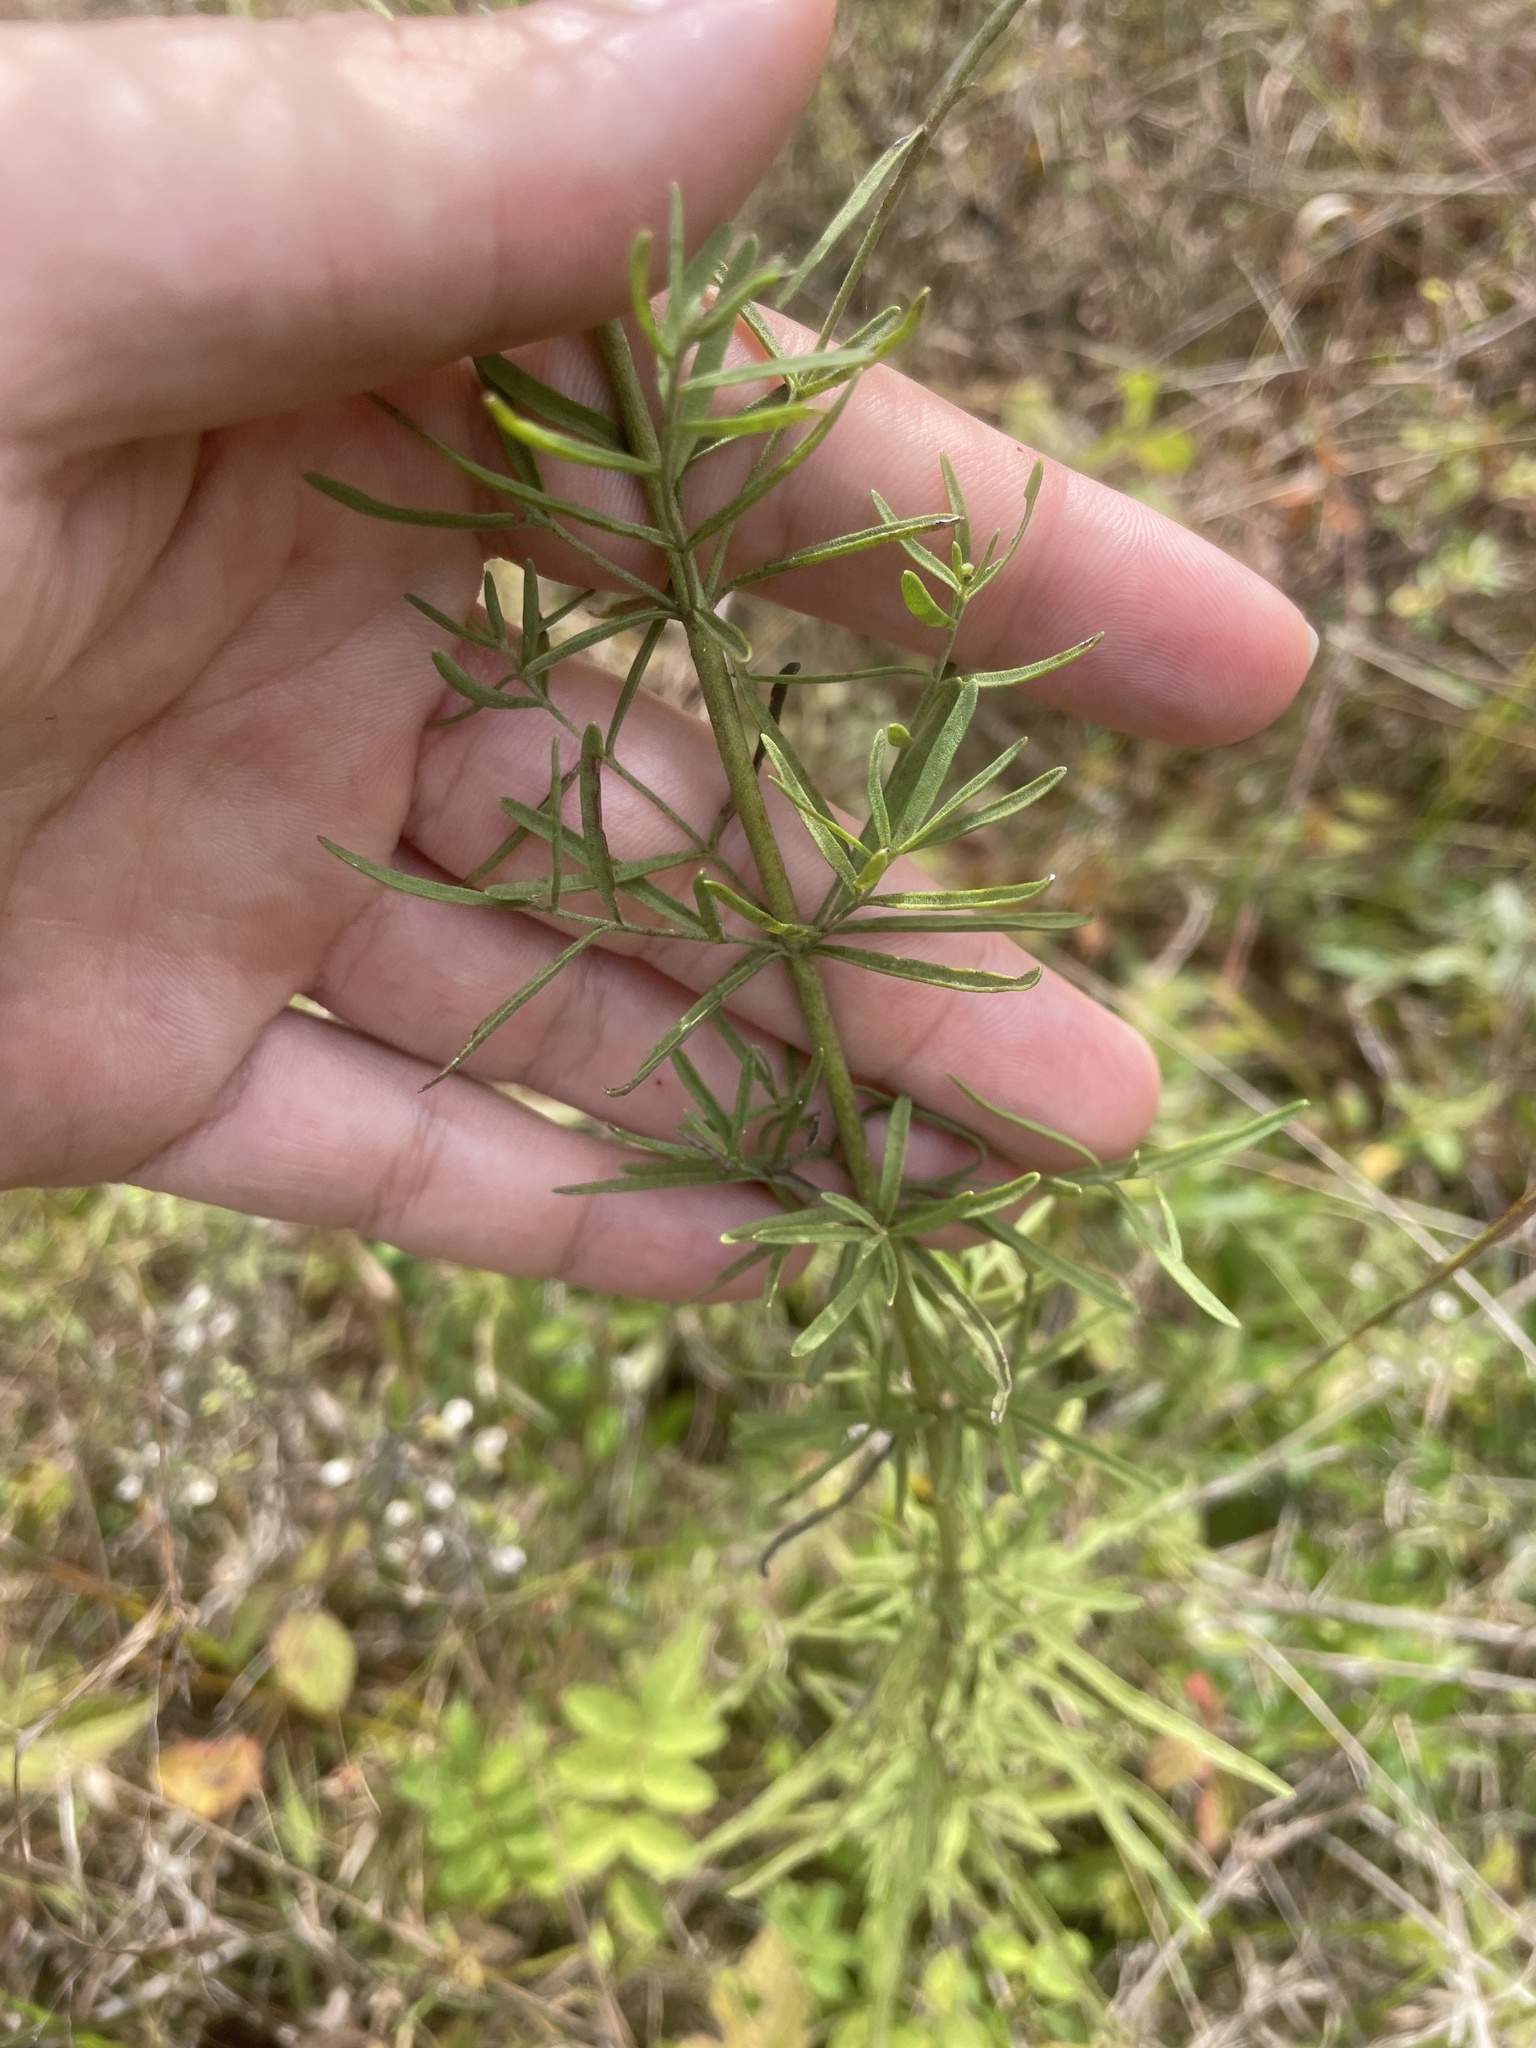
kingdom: Plantae
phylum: Tracheophyta
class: Magnoliopsida
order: Asterales
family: Asteraceae
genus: Eupatorium
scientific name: Eupatorium hyssopifolium
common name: Hyssop-leaf thoroughwort
